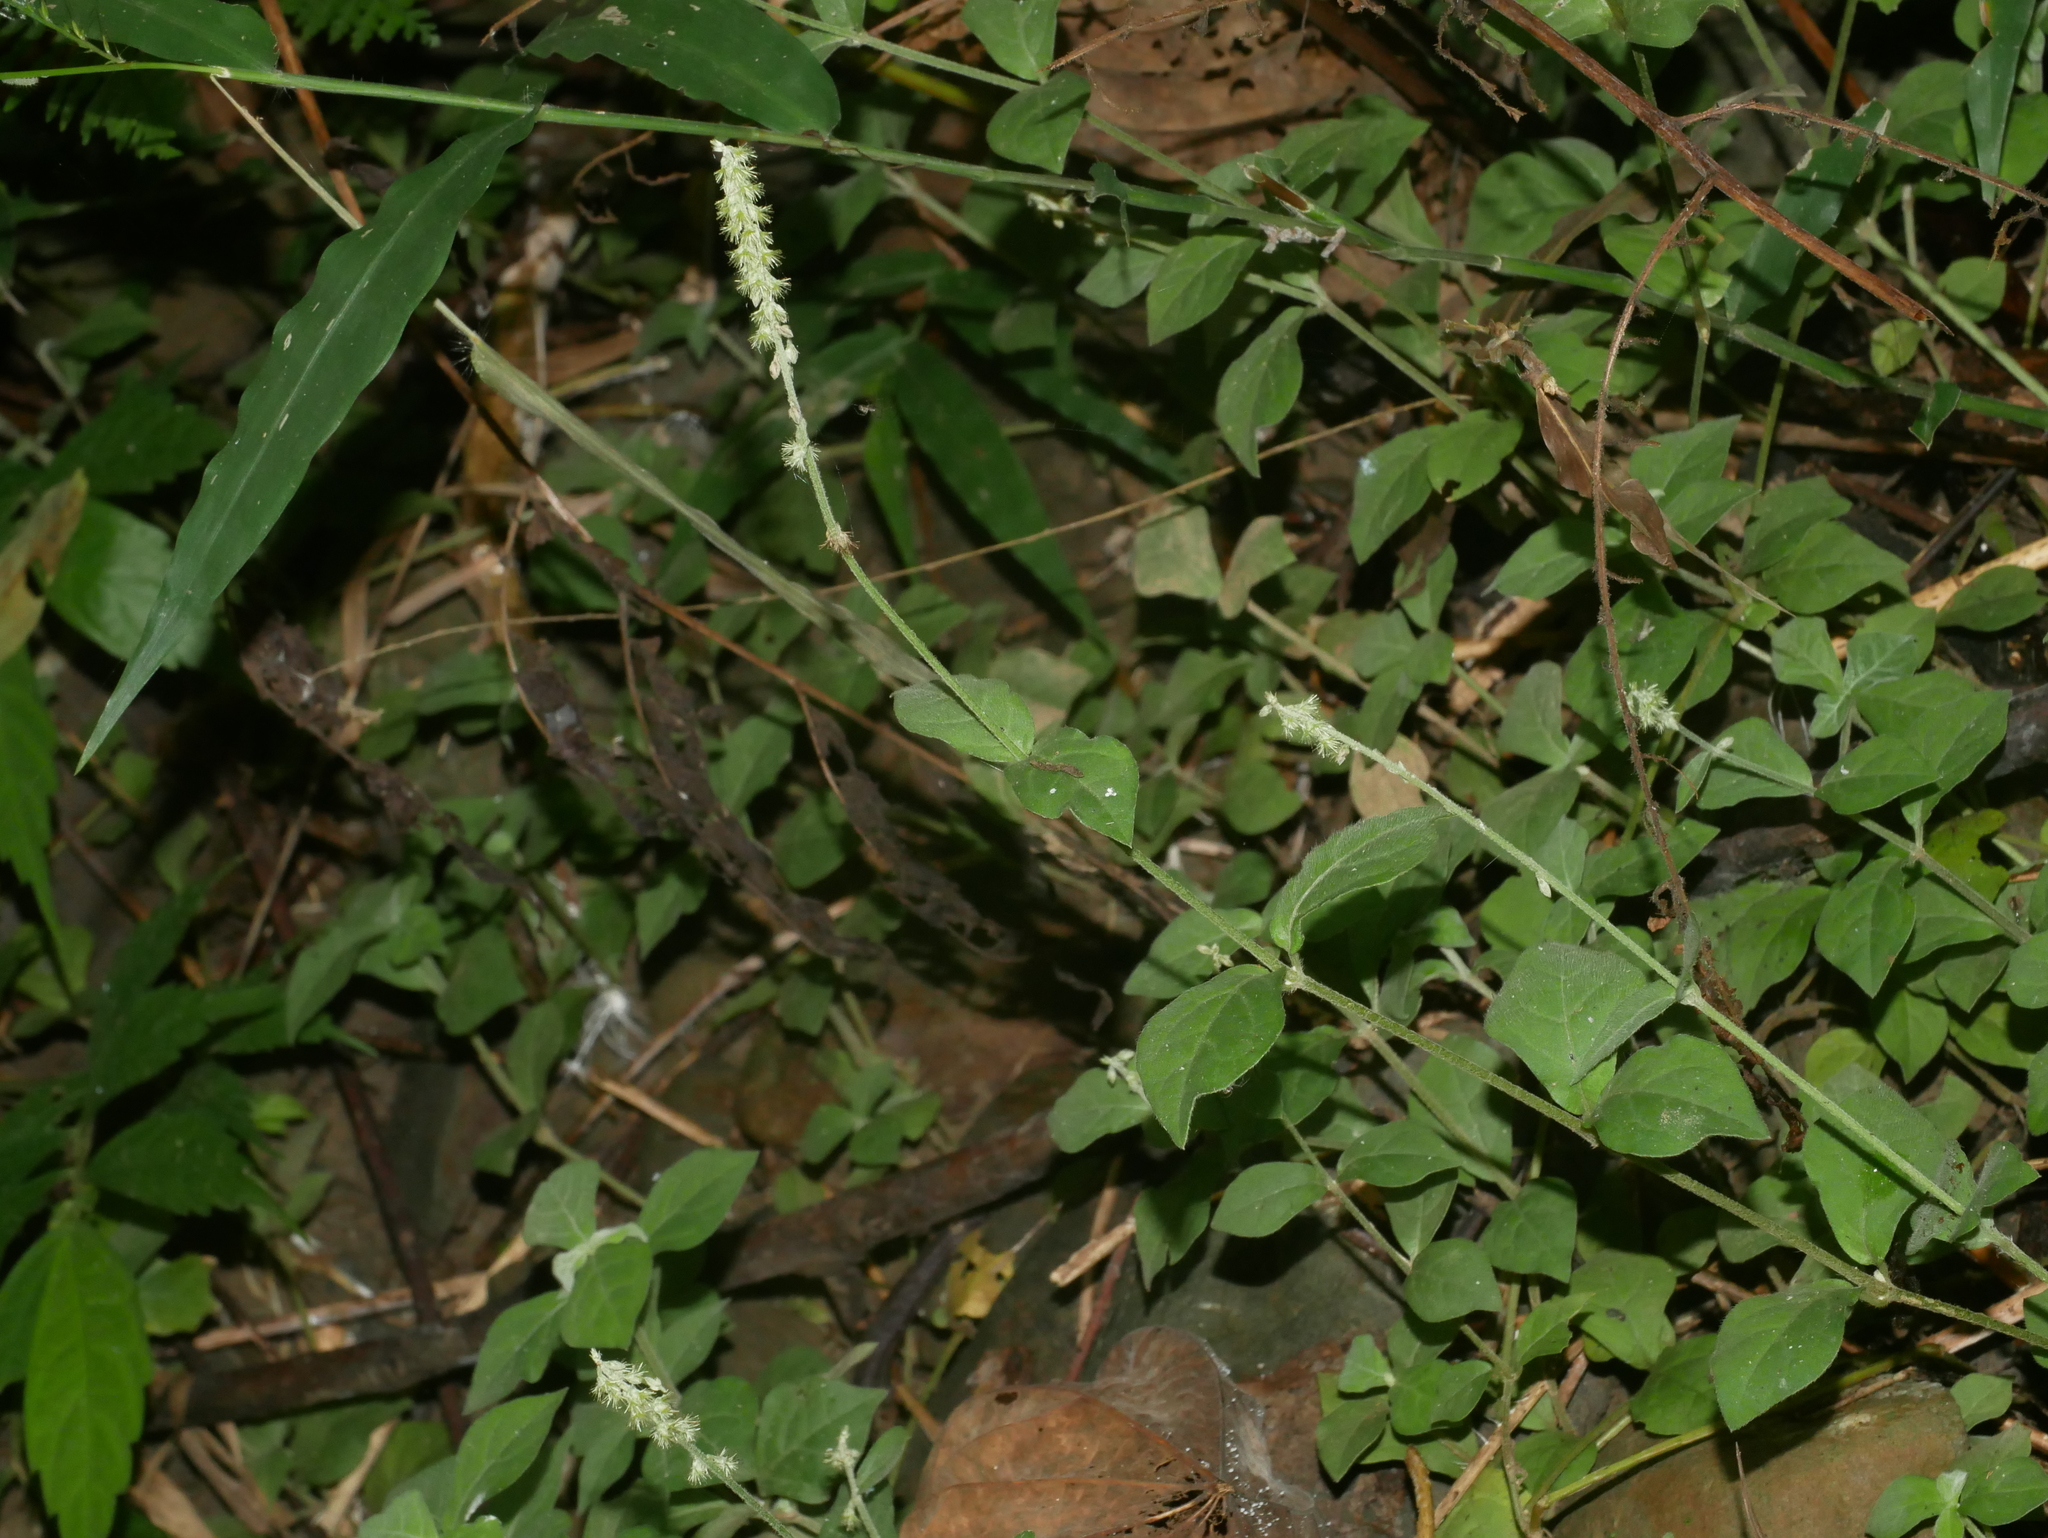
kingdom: Plantae
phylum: Tracheophyta
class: Magnoliopsida
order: Caryophyllales
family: Amaranthaceae
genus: Cyathula
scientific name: Cyathula prostrata
